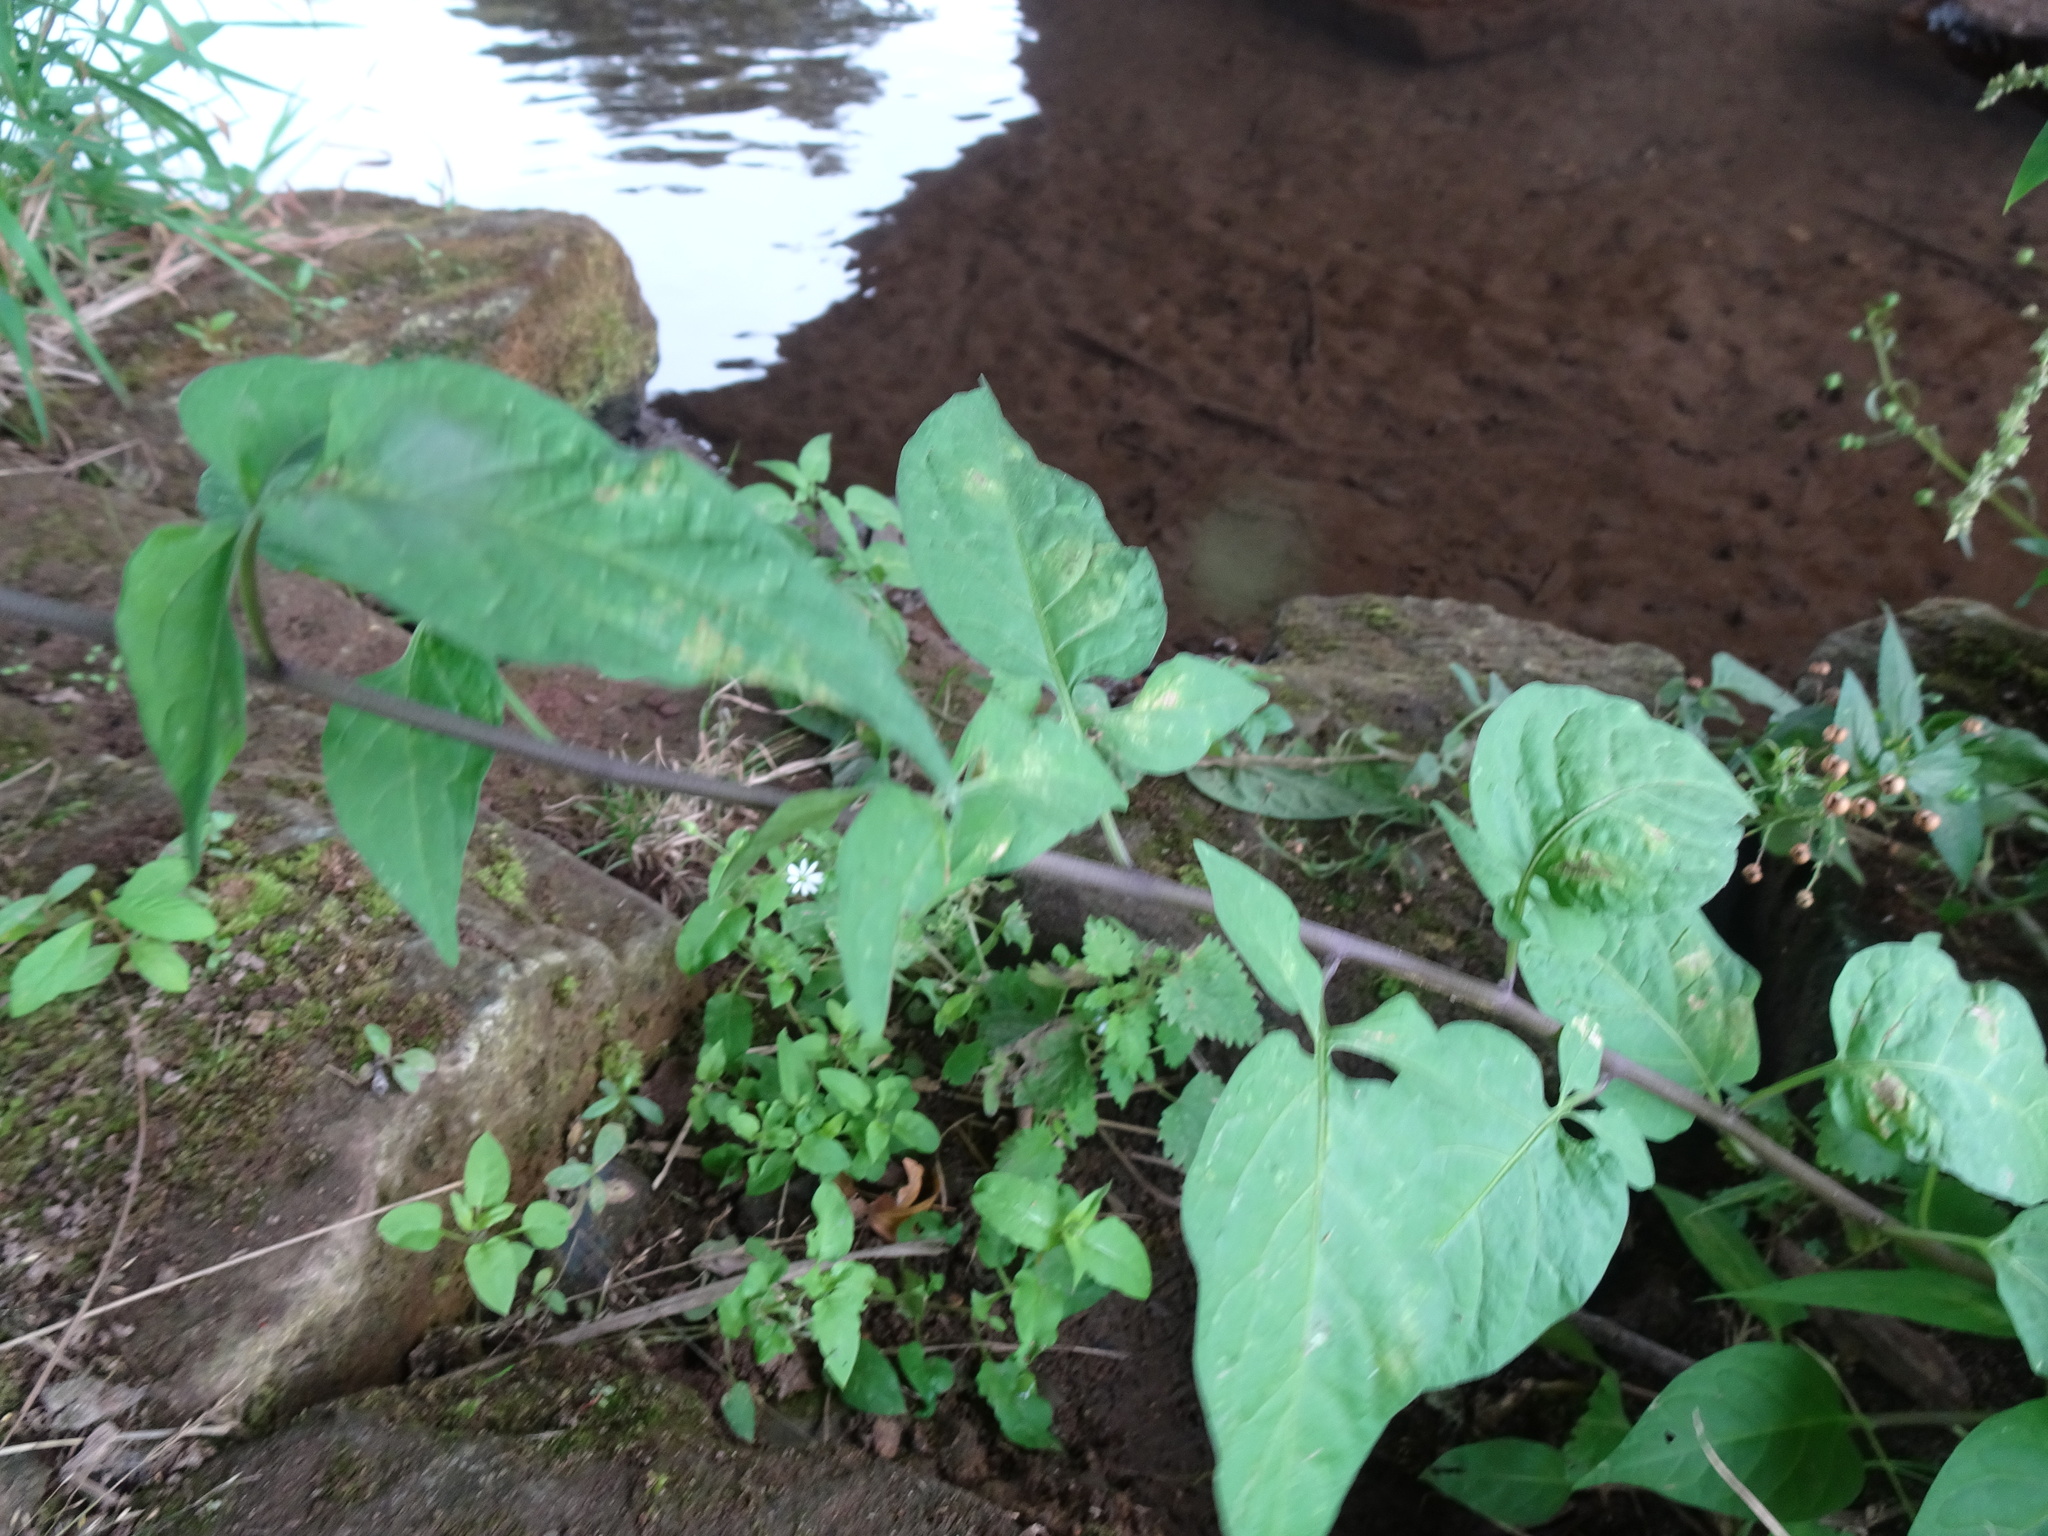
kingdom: Plantae
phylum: Tracheophyta
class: Magnoliopsida
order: Solanales
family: Solanaceae
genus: Solanum
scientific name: Solanum dulcamara
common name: Climbing nightshade
